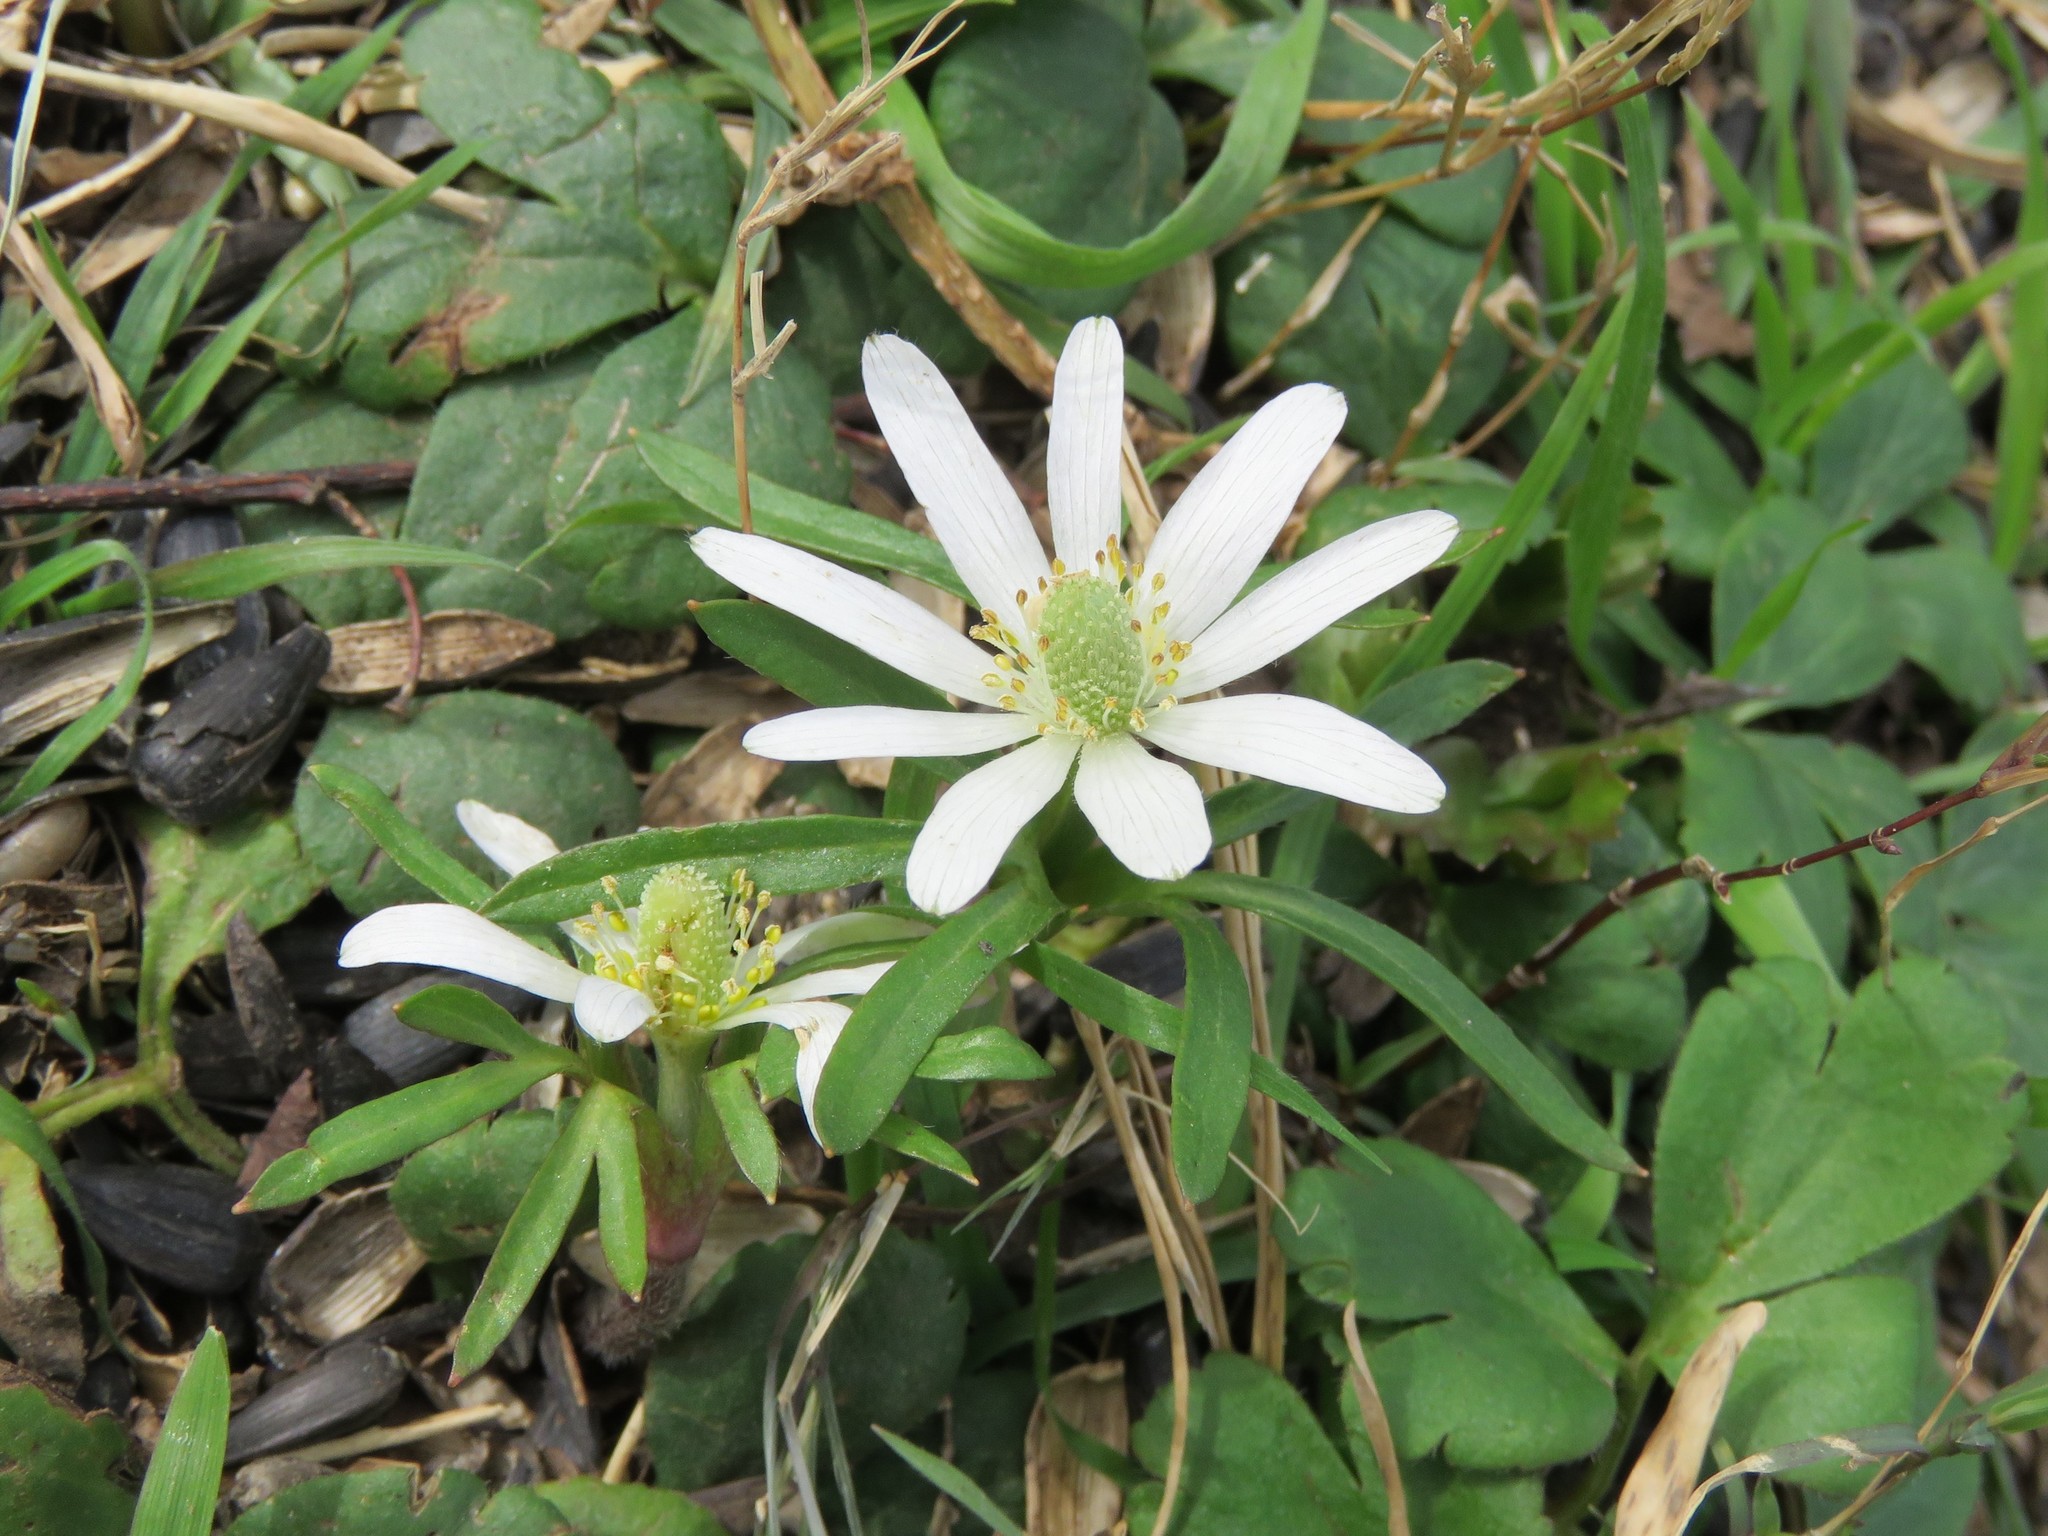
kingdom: Plantae
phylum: Tracheophyta
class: Magnoliopsida
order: Ranunculales
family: Ranunculaceae
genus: Anemone
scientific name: Anemone berlandieri
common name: Ten-petal anemone
